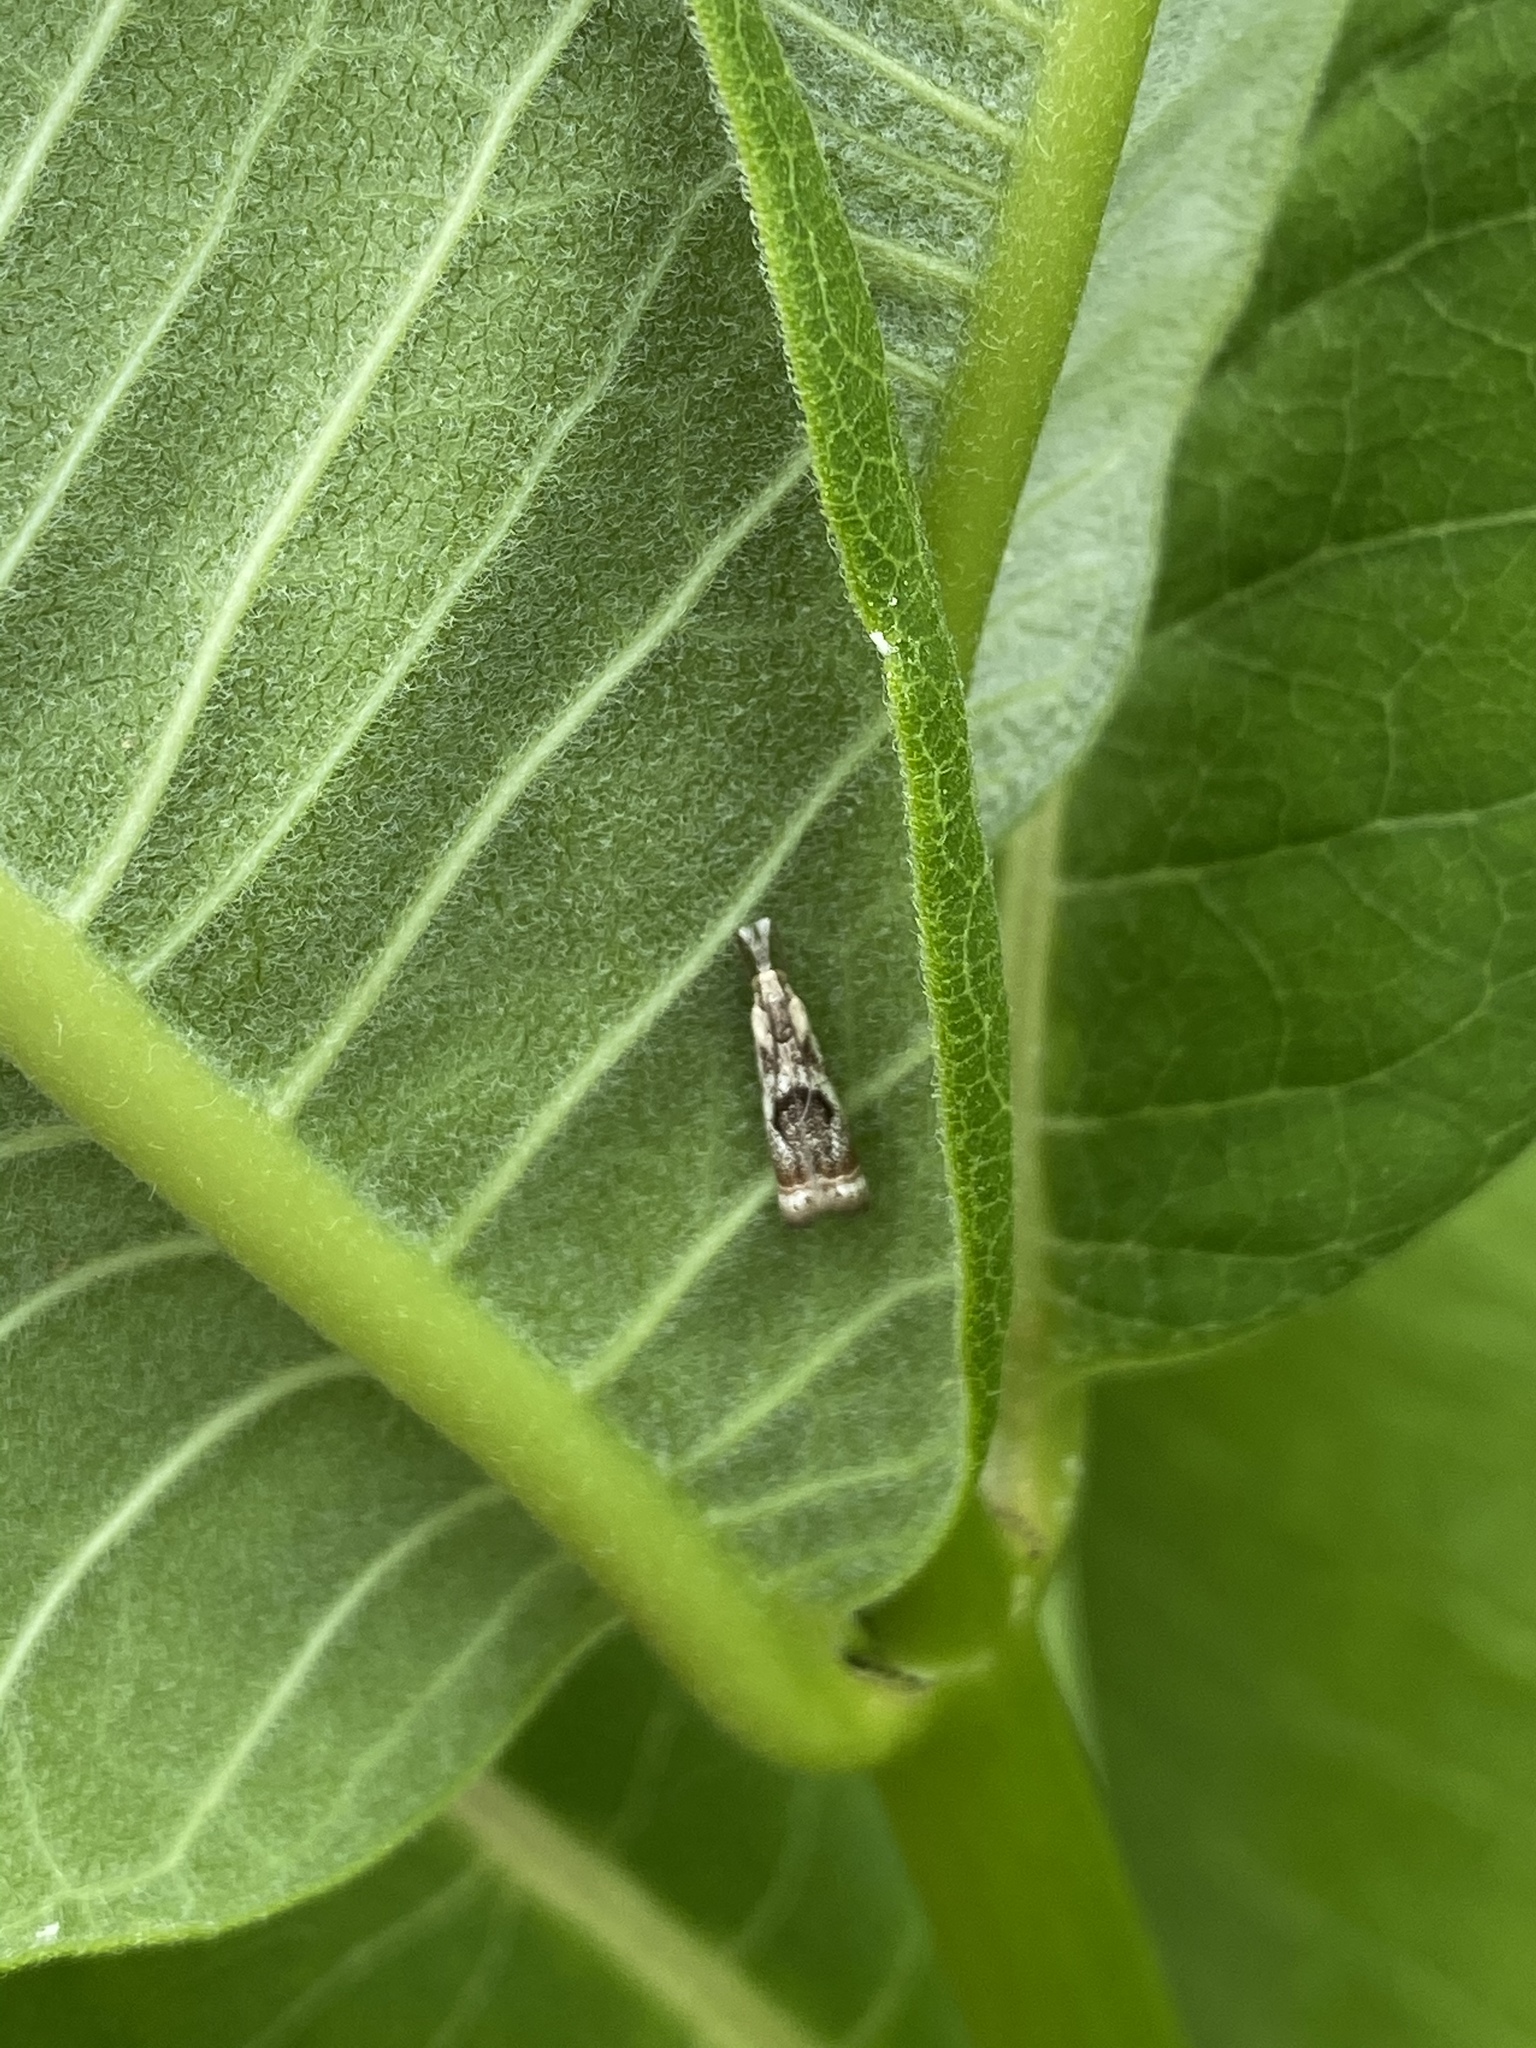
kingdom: Animalia
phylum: Arthropoda
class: Insecta
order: Lepidoptera
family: Crambidae
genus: Microcrambus
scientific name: Microcrambus elegans
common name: Elegant grass-veneer
